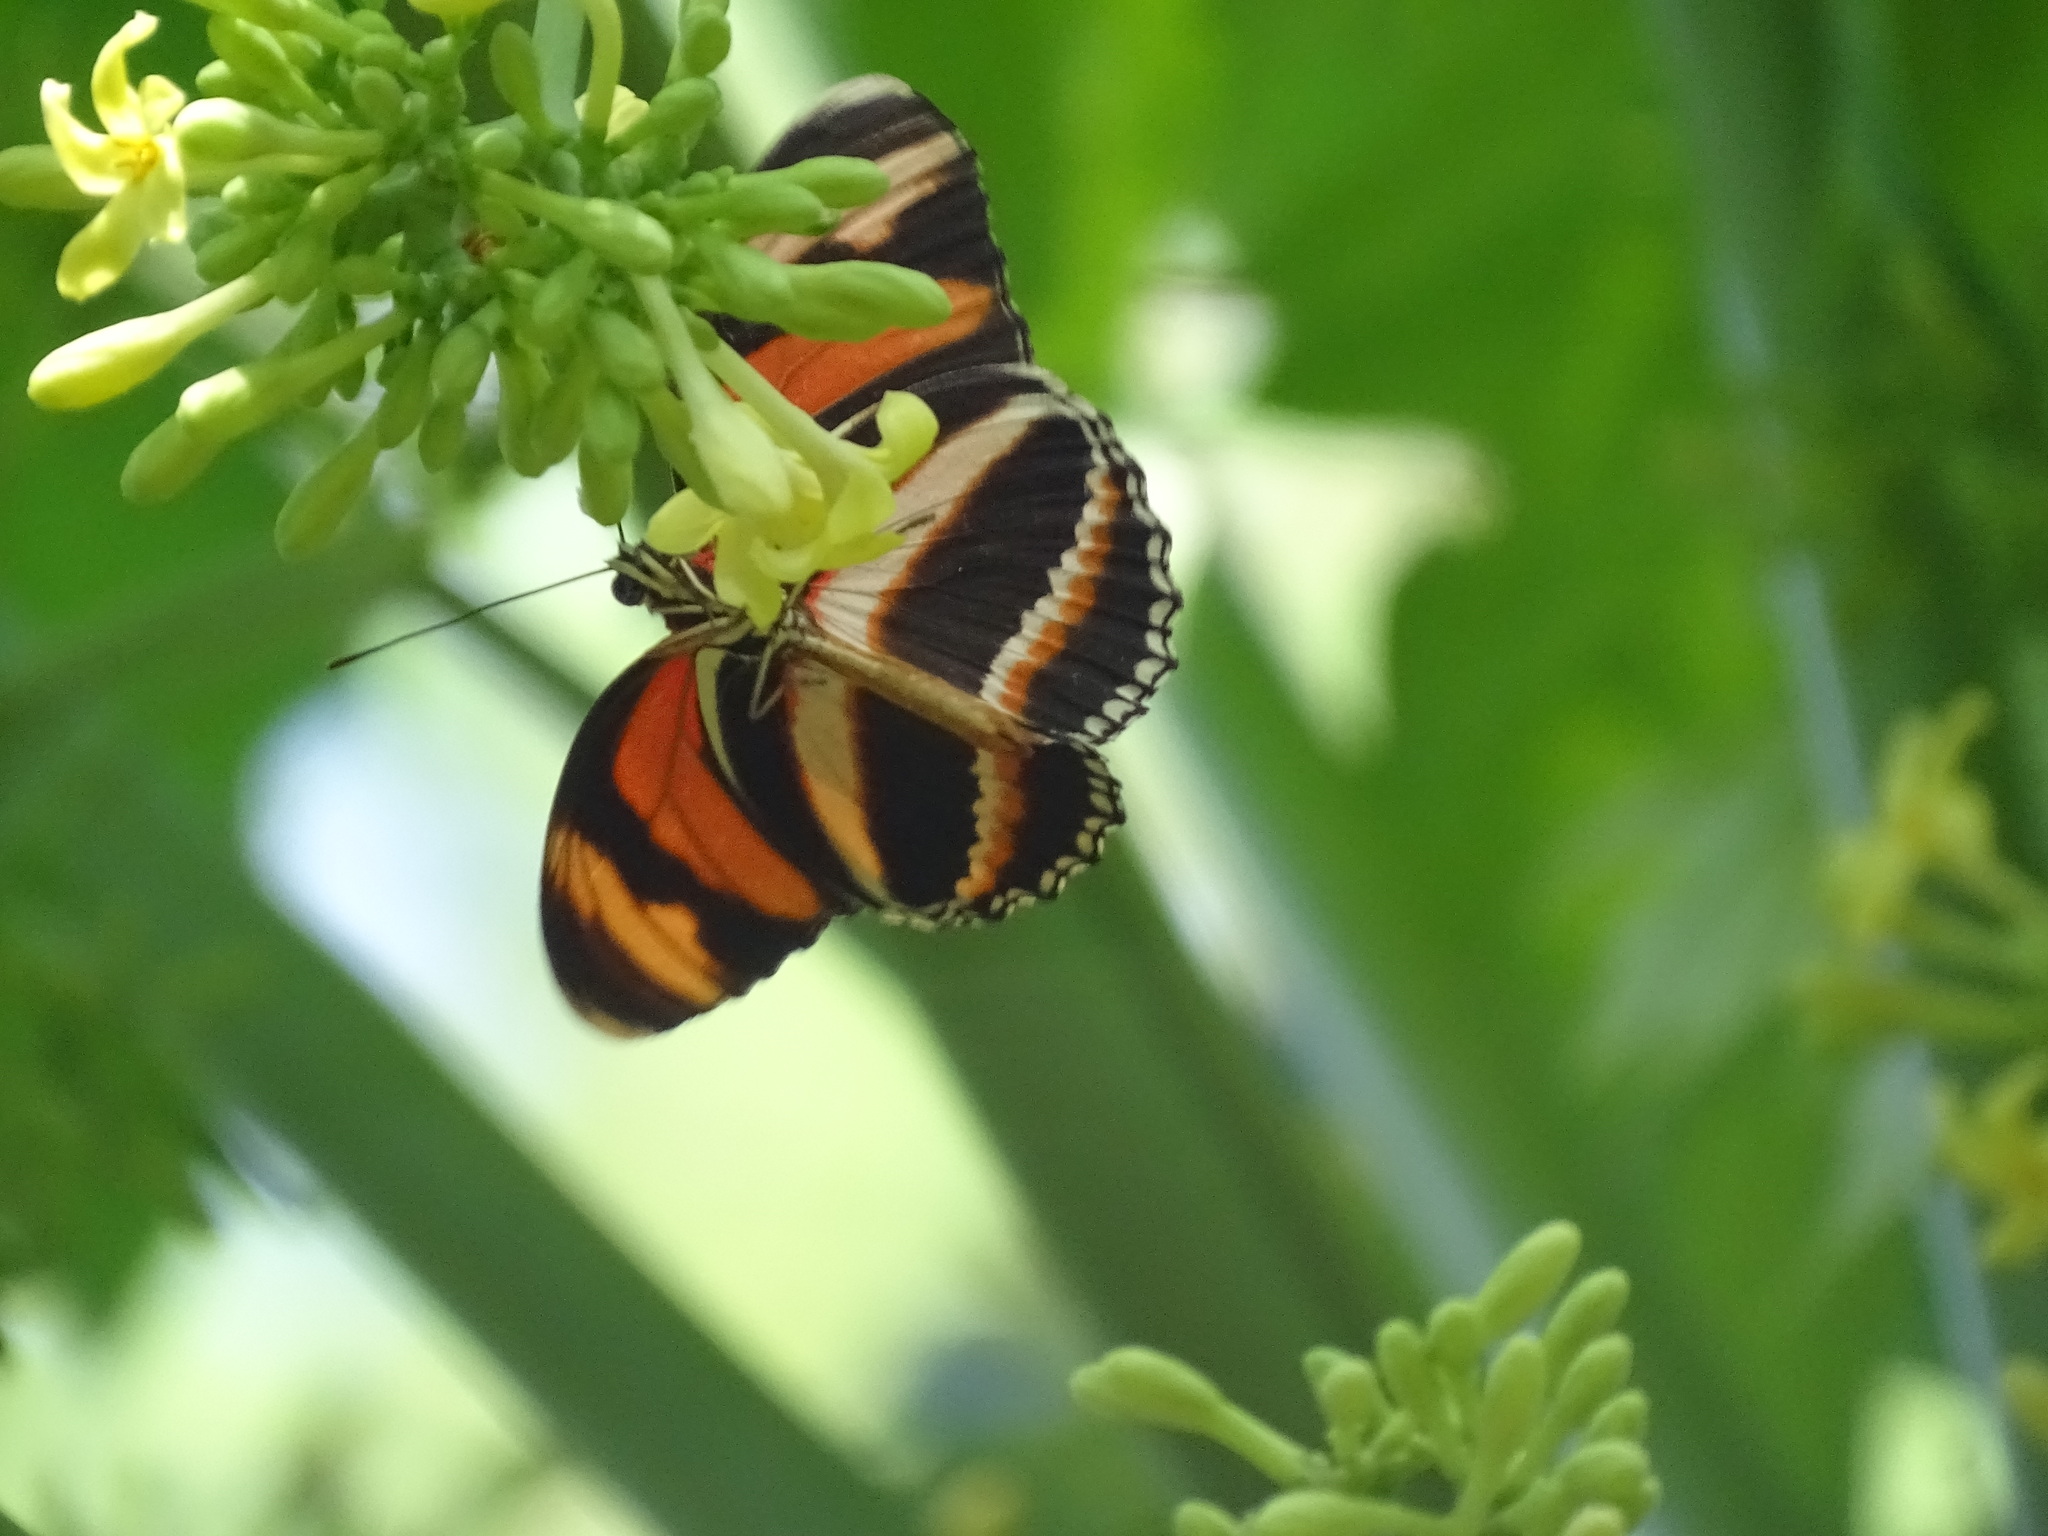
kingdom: Animalia
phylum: Arthropoda
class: Insecta
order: Lepidoptera
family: Nymphalidae
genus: Dryadula
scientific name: Dryadula phaetusa
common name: Banded orange heliconian
